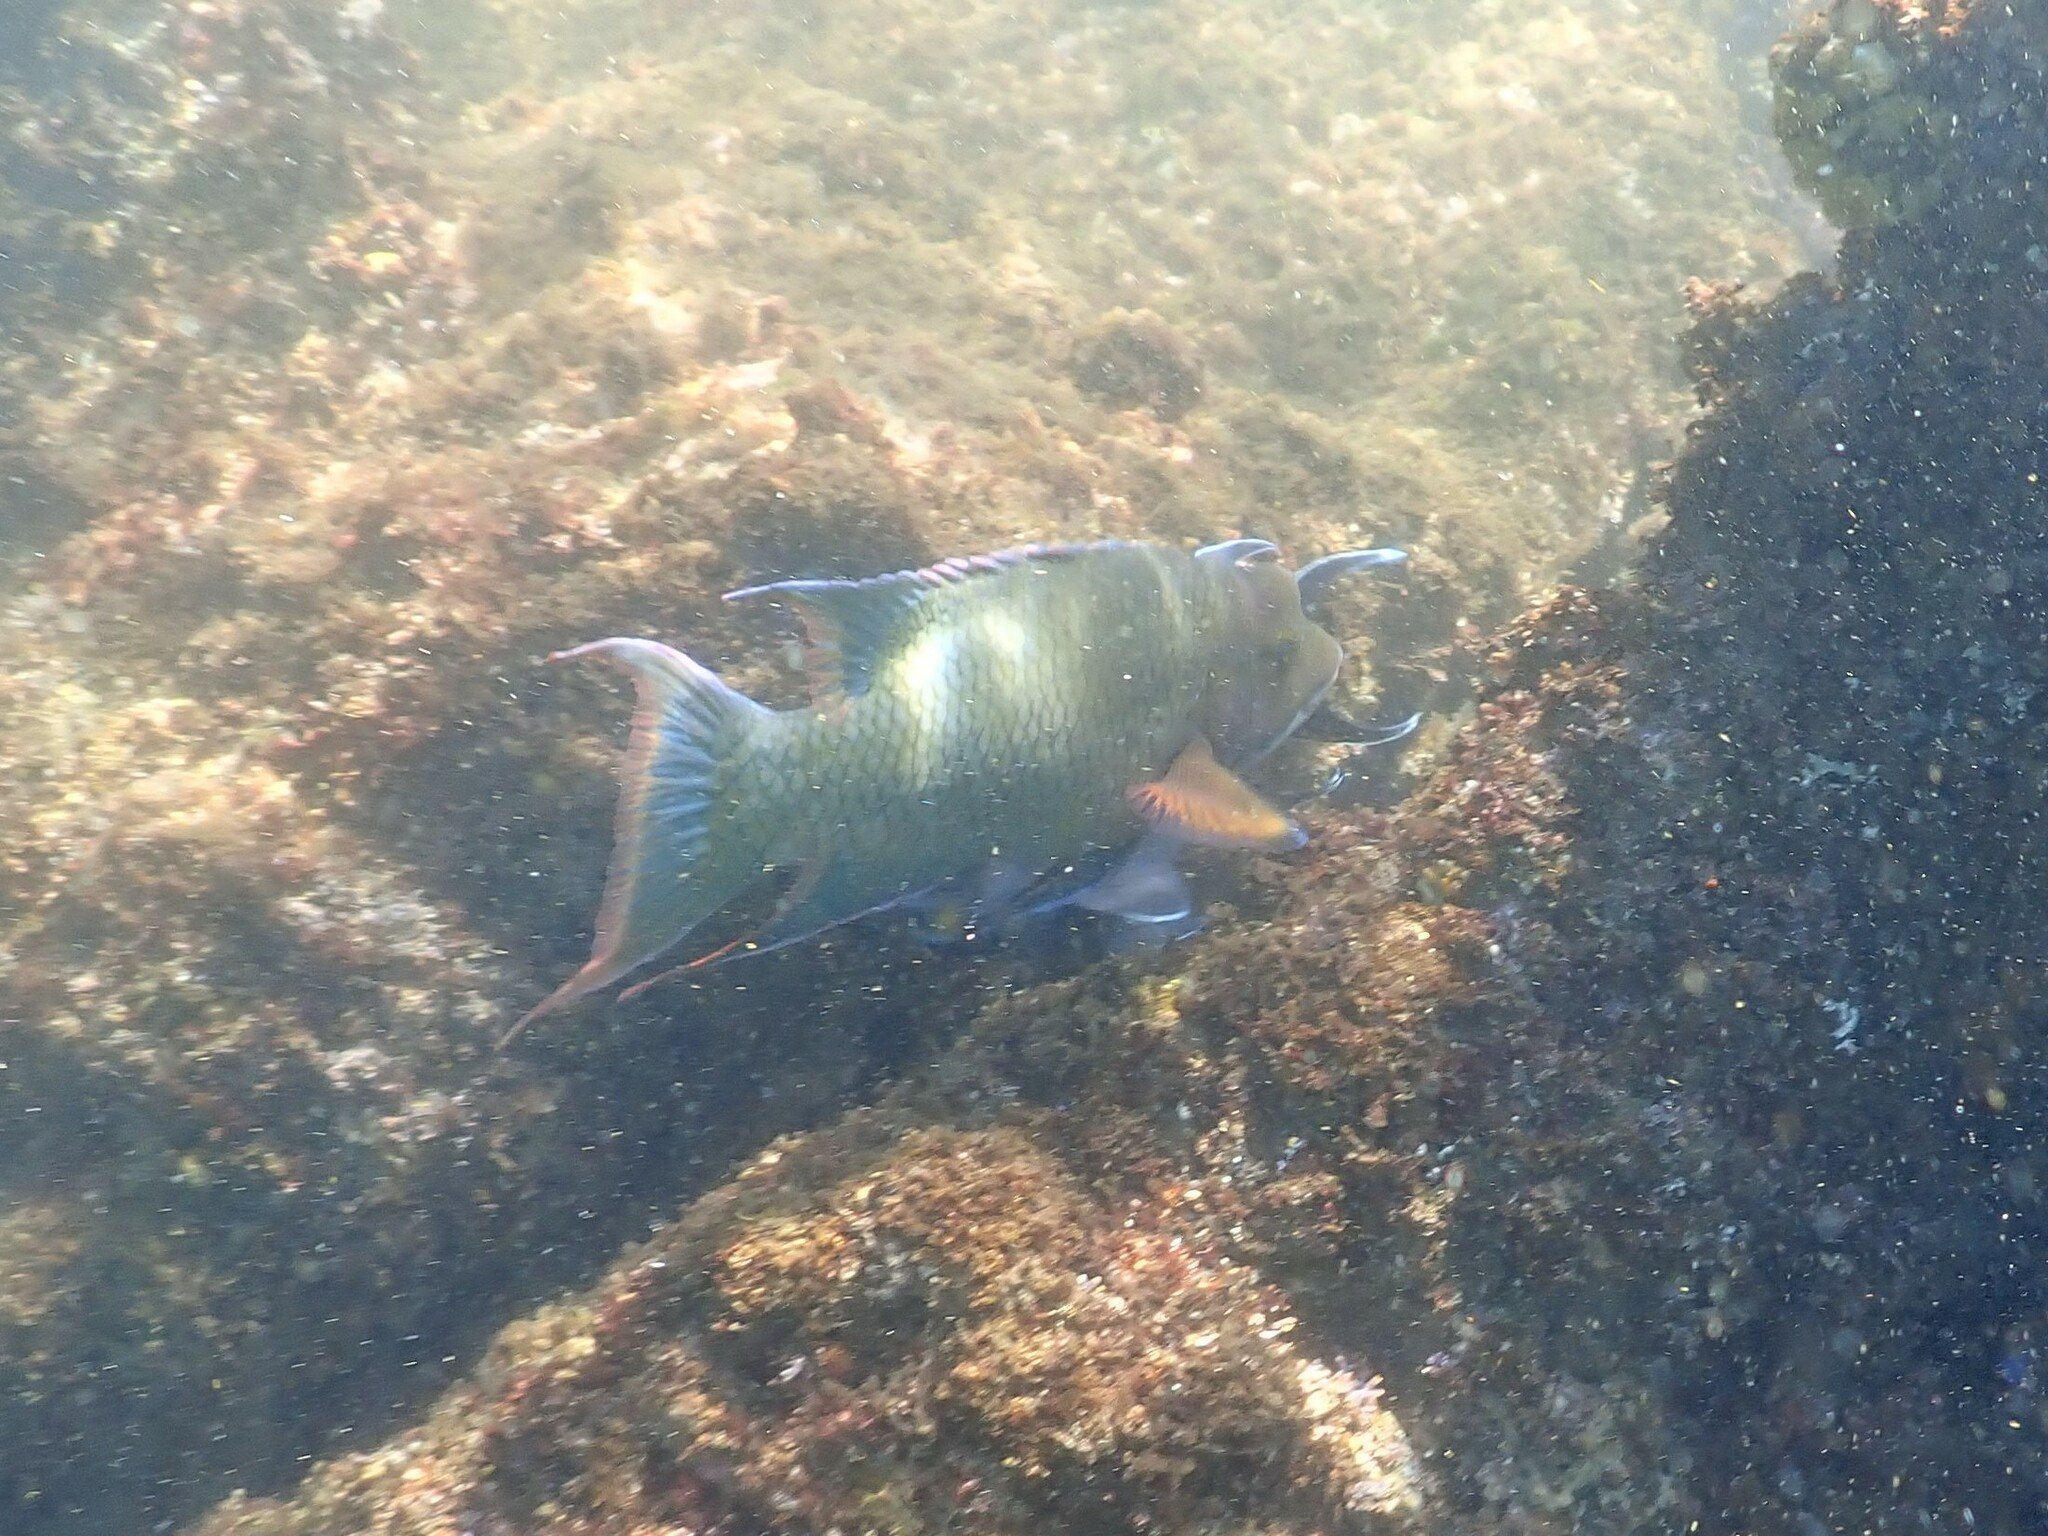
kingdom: Animalia
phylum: Chordata
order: Perciformes
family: Labridae
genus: Bodianus
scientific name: Bodianus diplotaenia
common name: Mexican hogfish
